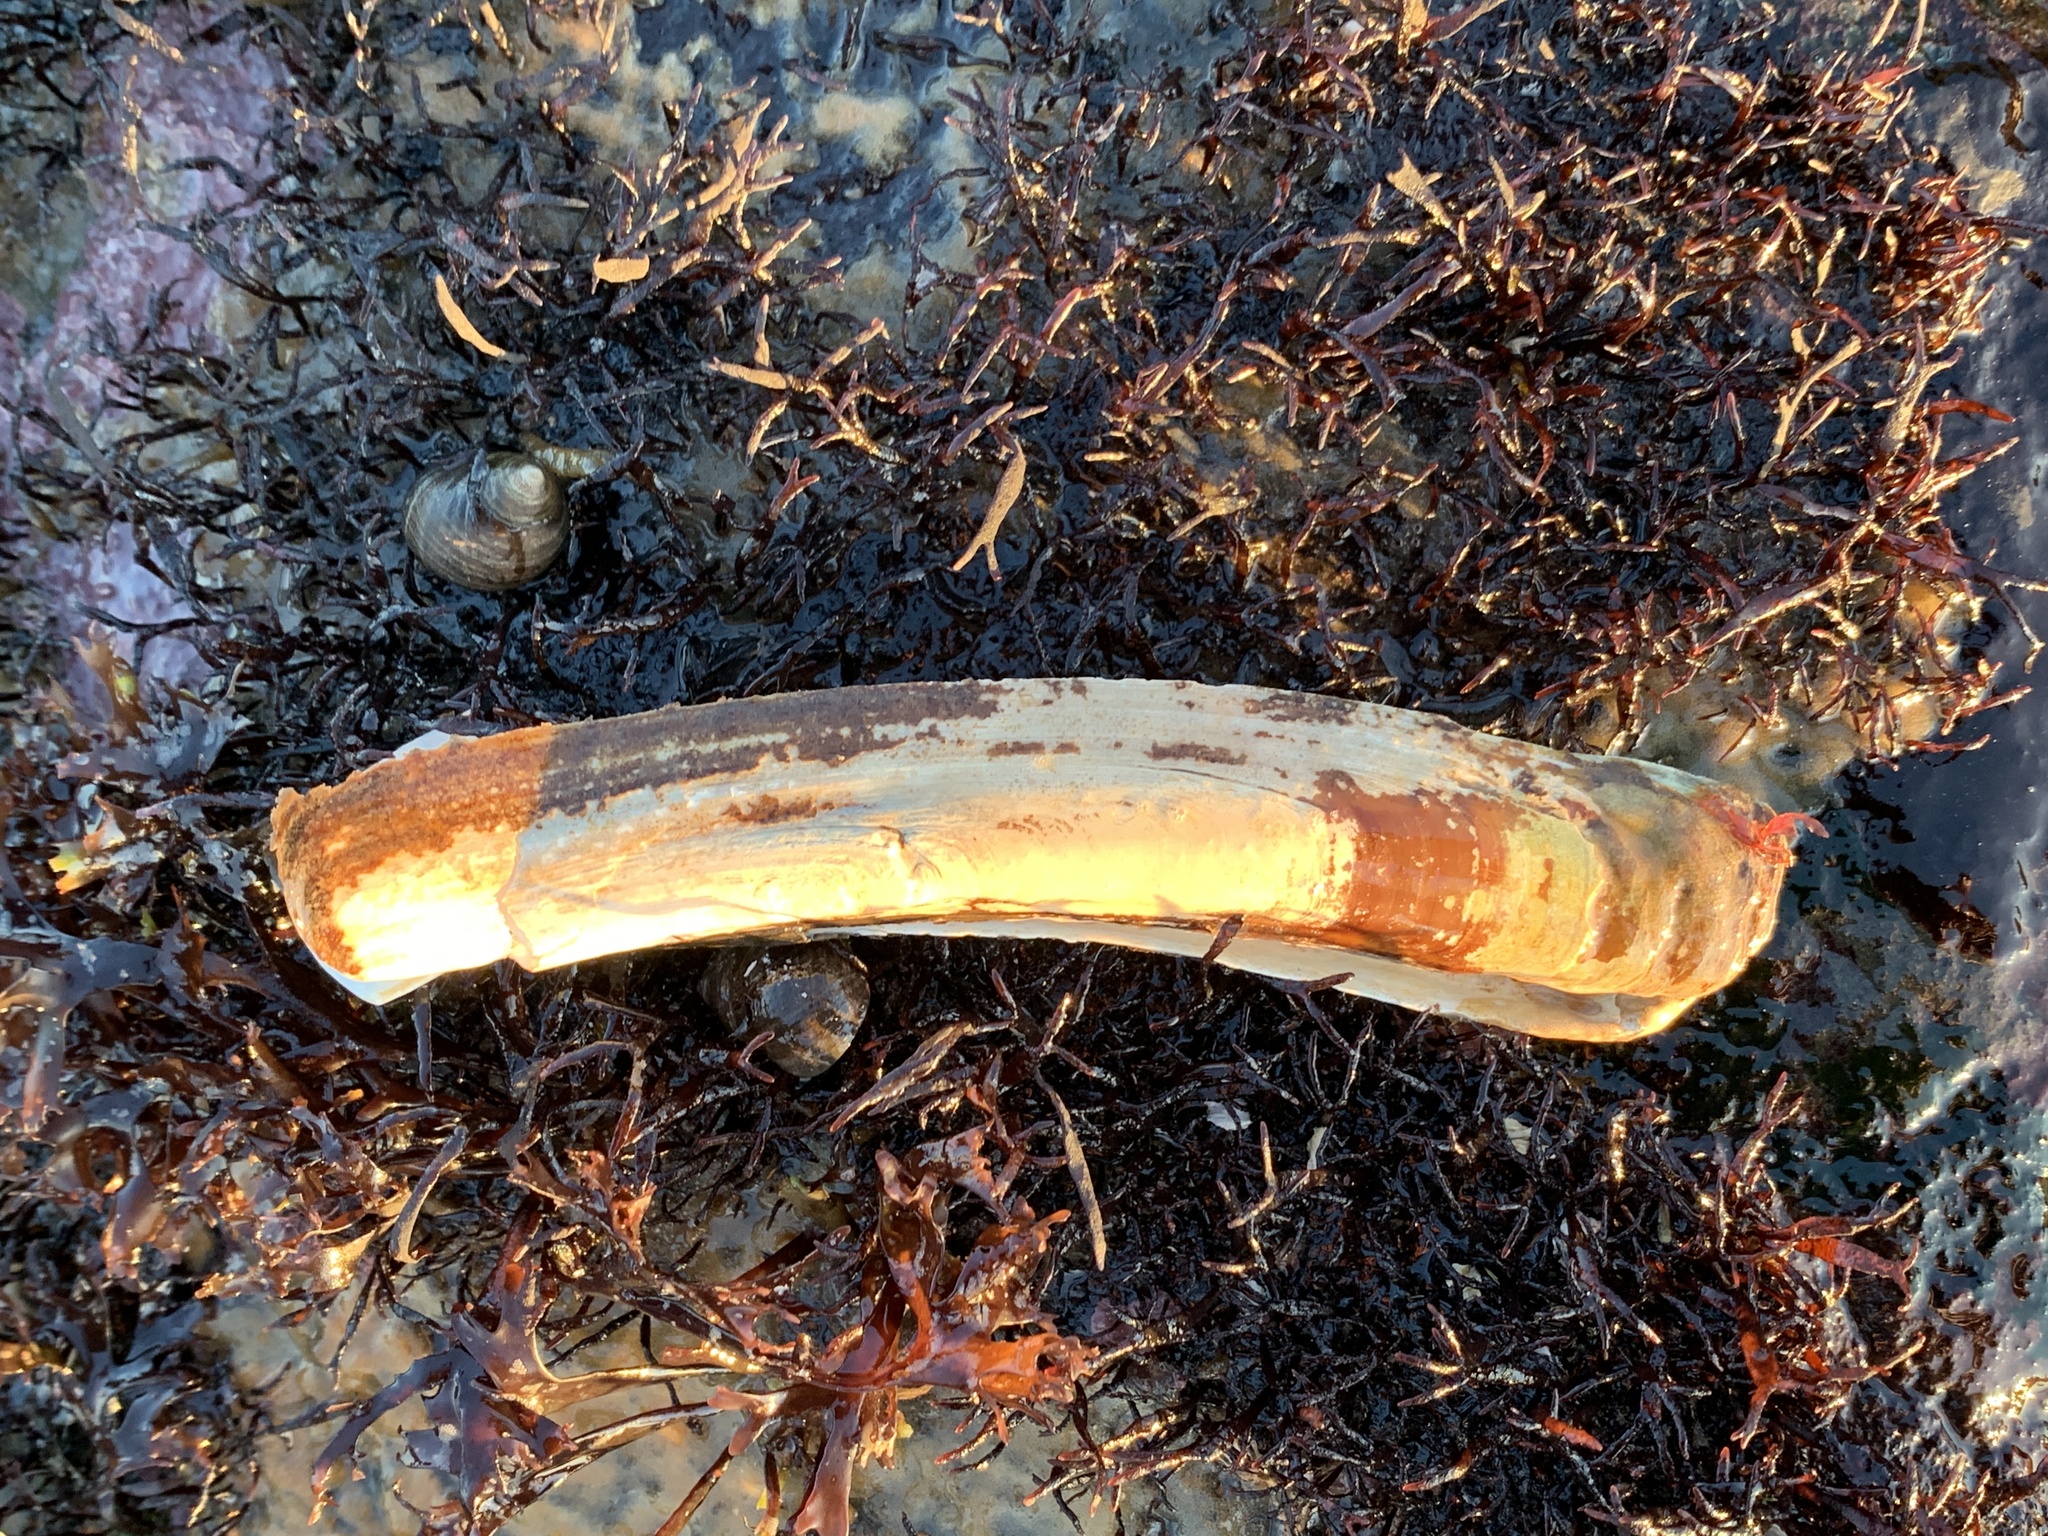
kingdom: Animalia
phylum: Mollusca
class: Bivalvia
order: Adapedonta
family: Pharidae
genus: Ensis
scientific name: Ensis leei
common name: American jack knife clam
